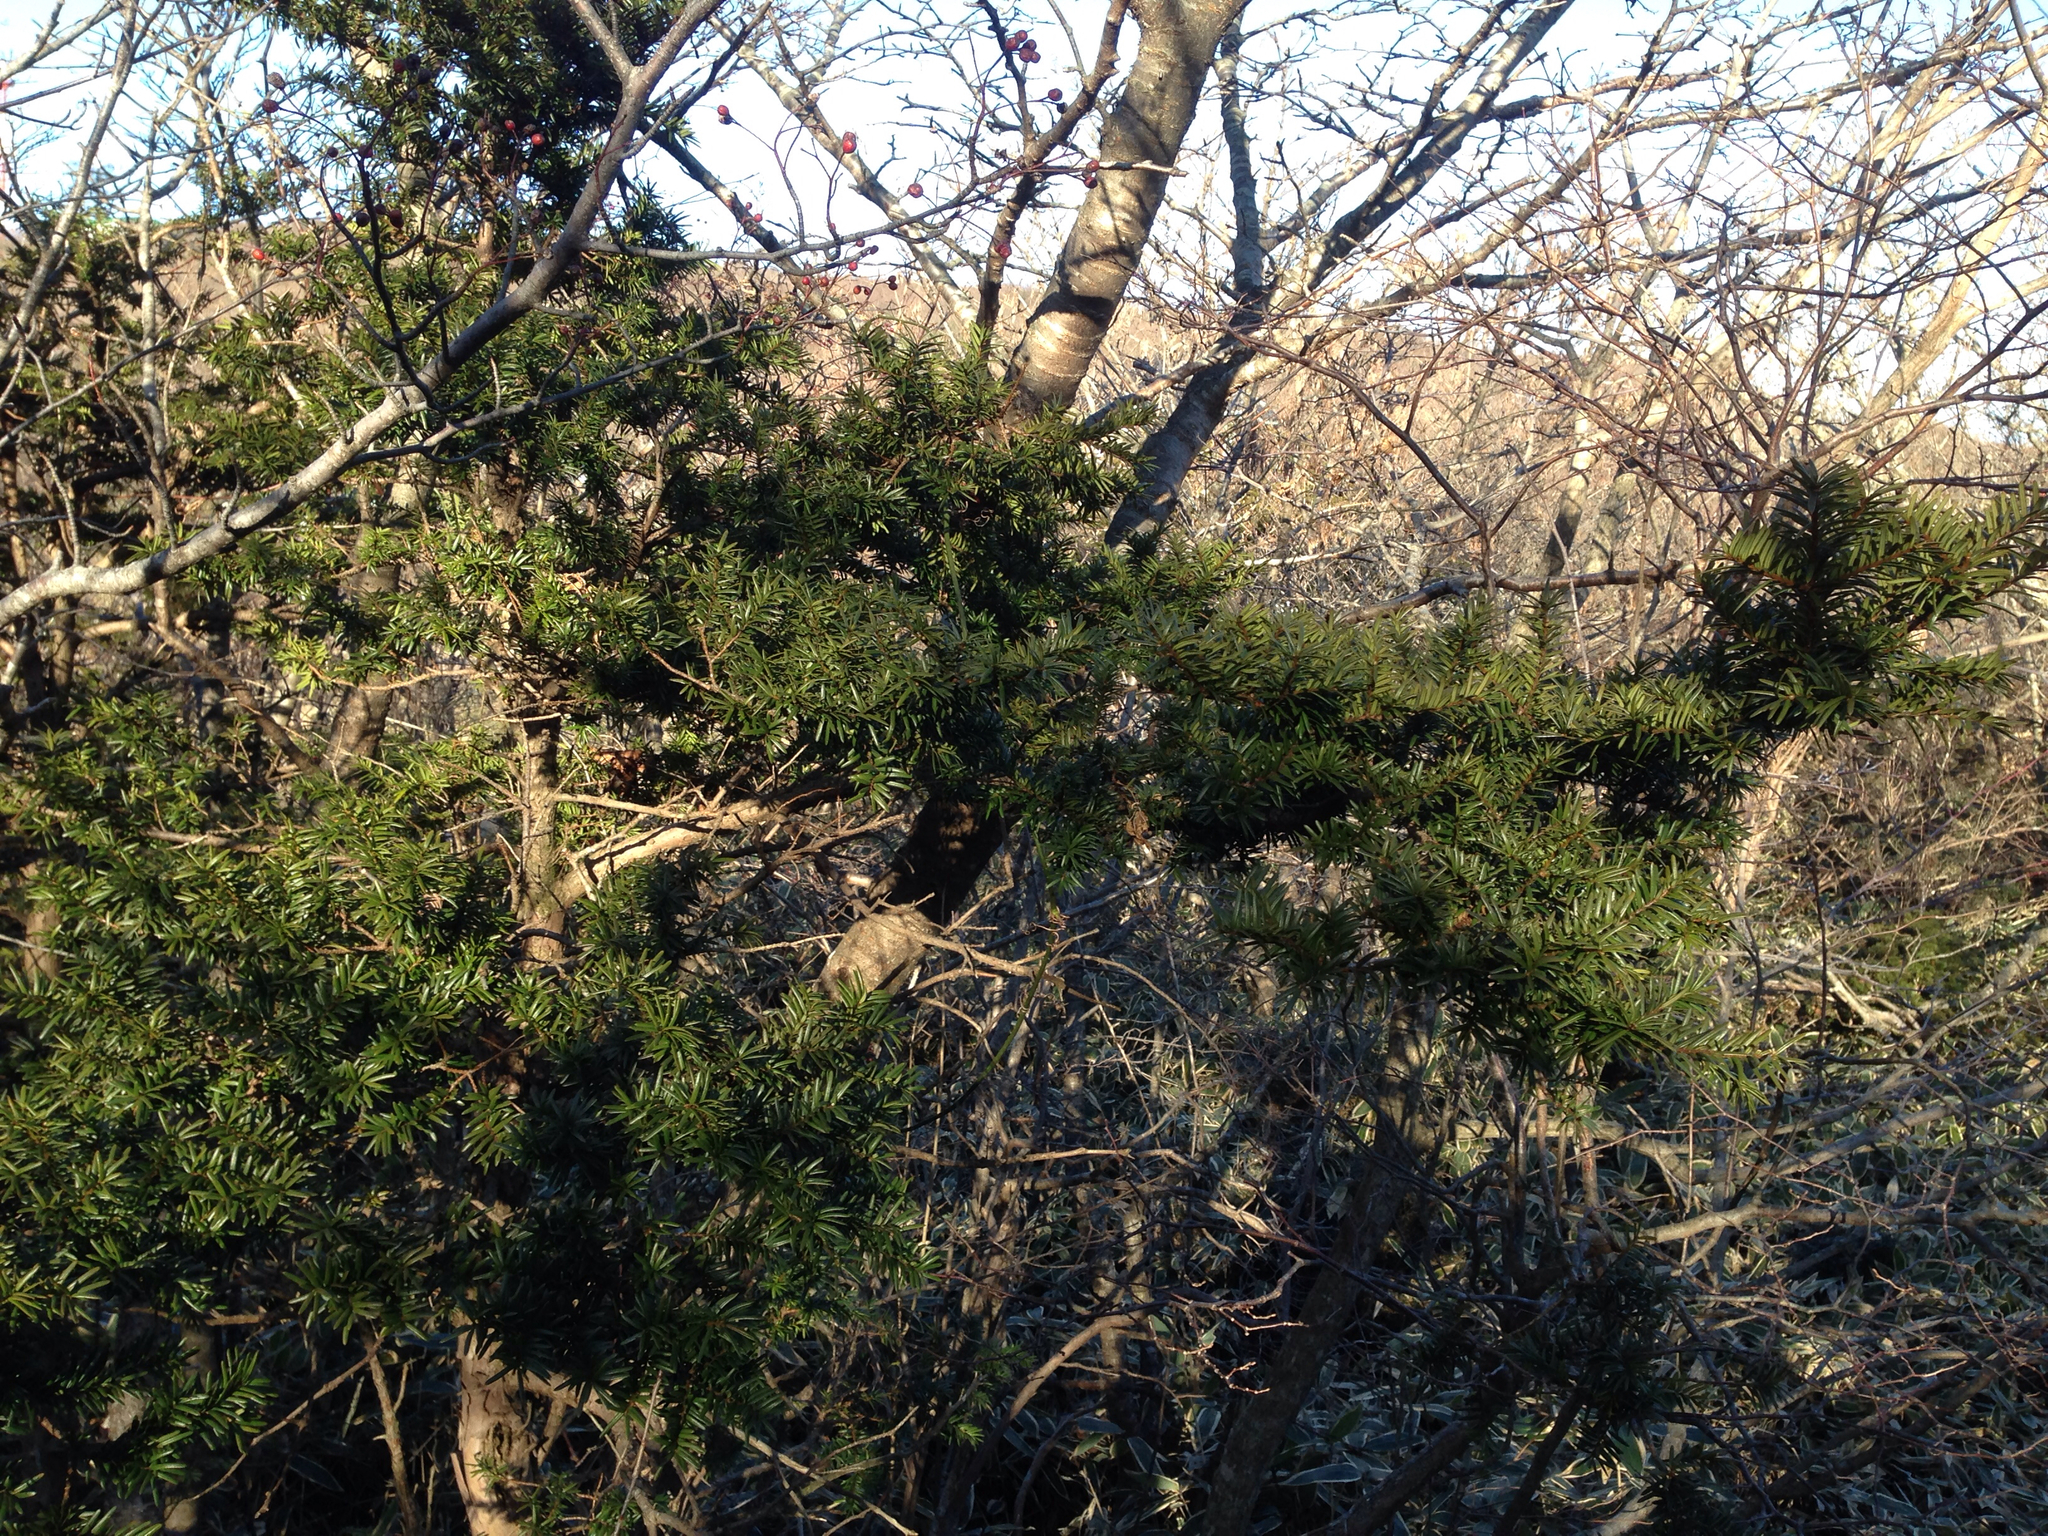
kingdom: Plantae
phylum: Tracheophyta
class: Pinopsida
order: Pinales
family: Taxaceae
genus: Taxus
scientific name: Taxus cuspidata
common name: Japanese yew
